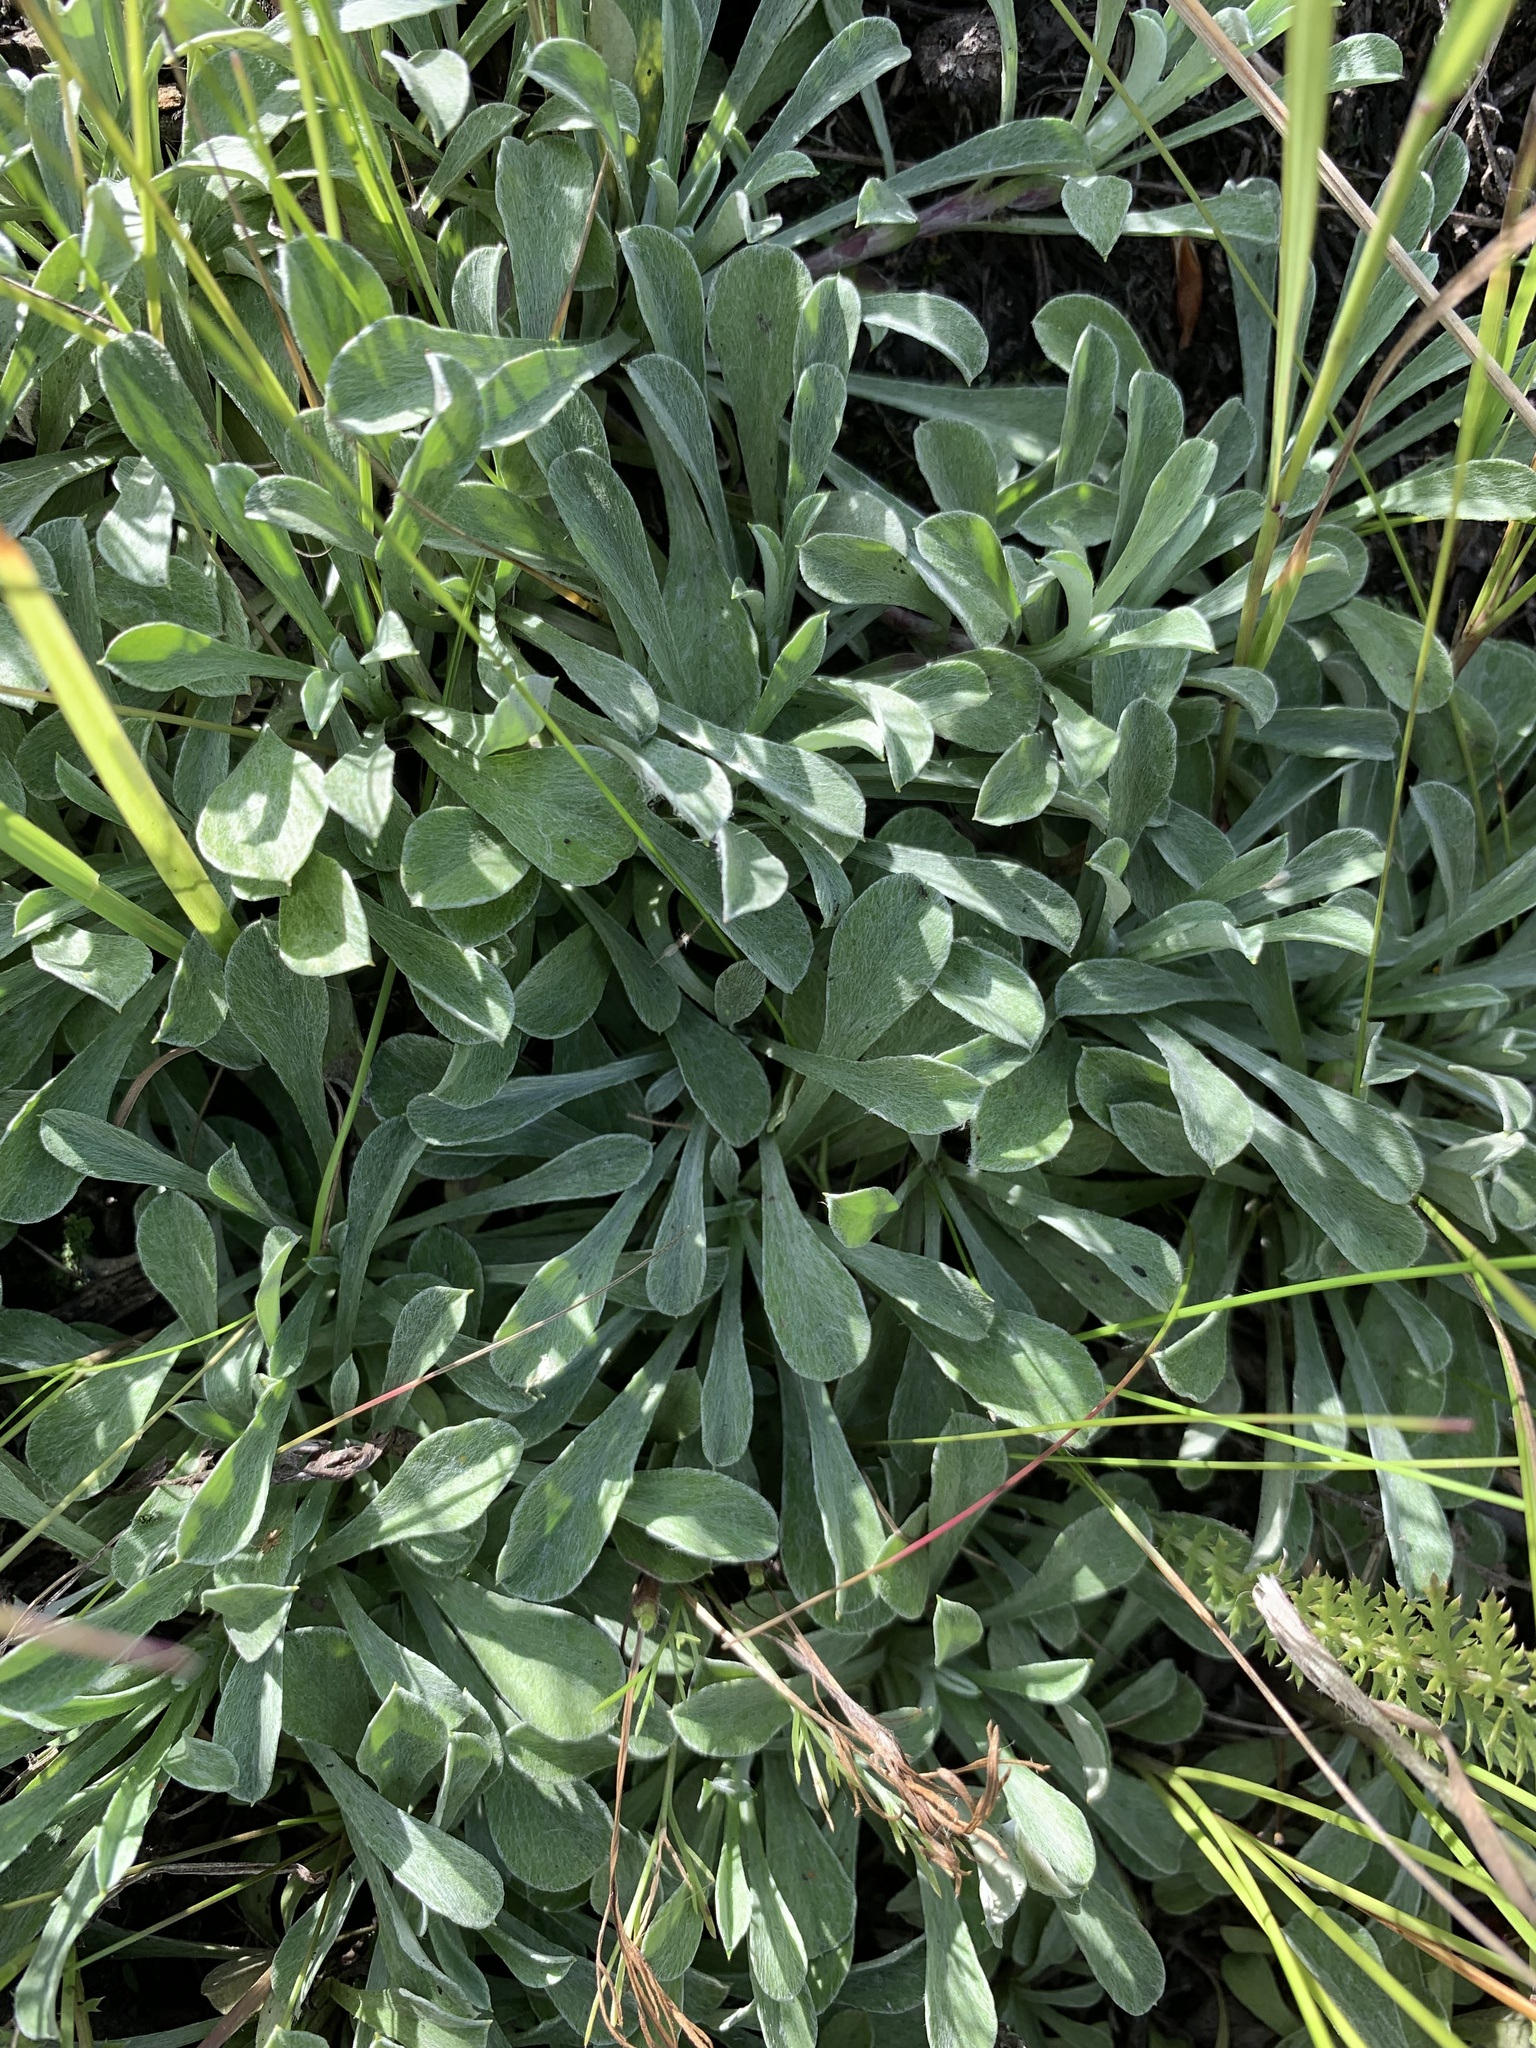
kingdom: Plantae
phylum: Tracheophyta
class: Magnoliopsida
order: Asterales
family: Asteraceae
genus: Antennaria
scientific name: Antennaria dioica
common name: Mountain everlasting
